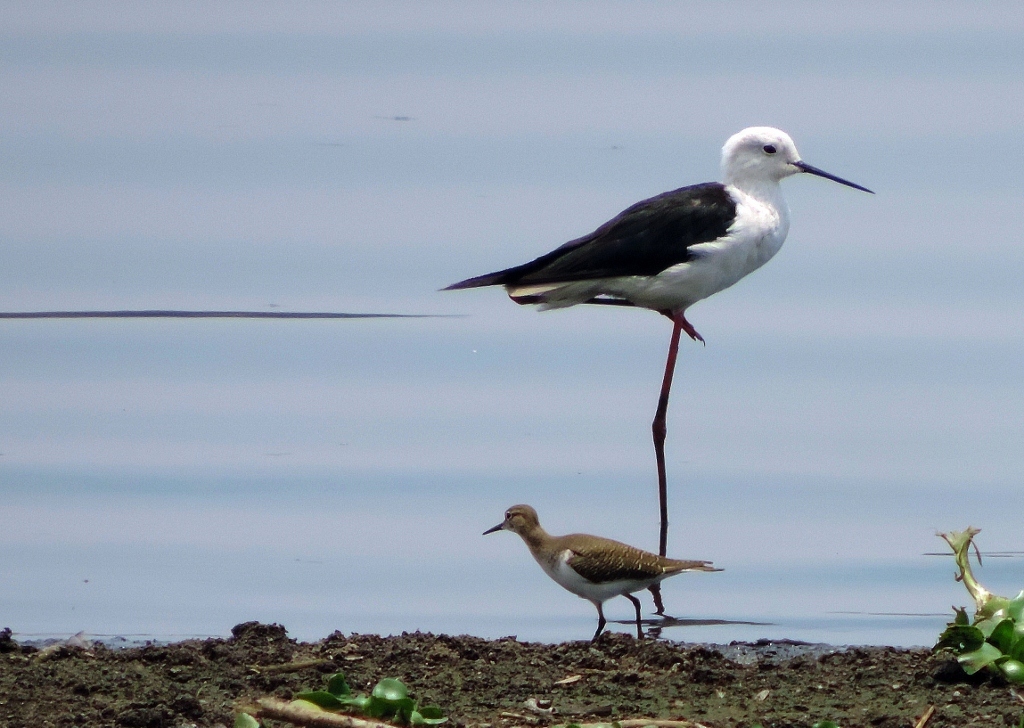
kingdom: Animalia
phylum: Chordata
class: Aves
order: Charadriiformes
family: Scolopacidae
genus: Actitis
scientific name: Actitis hypoleucos
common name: Common sandpiper
